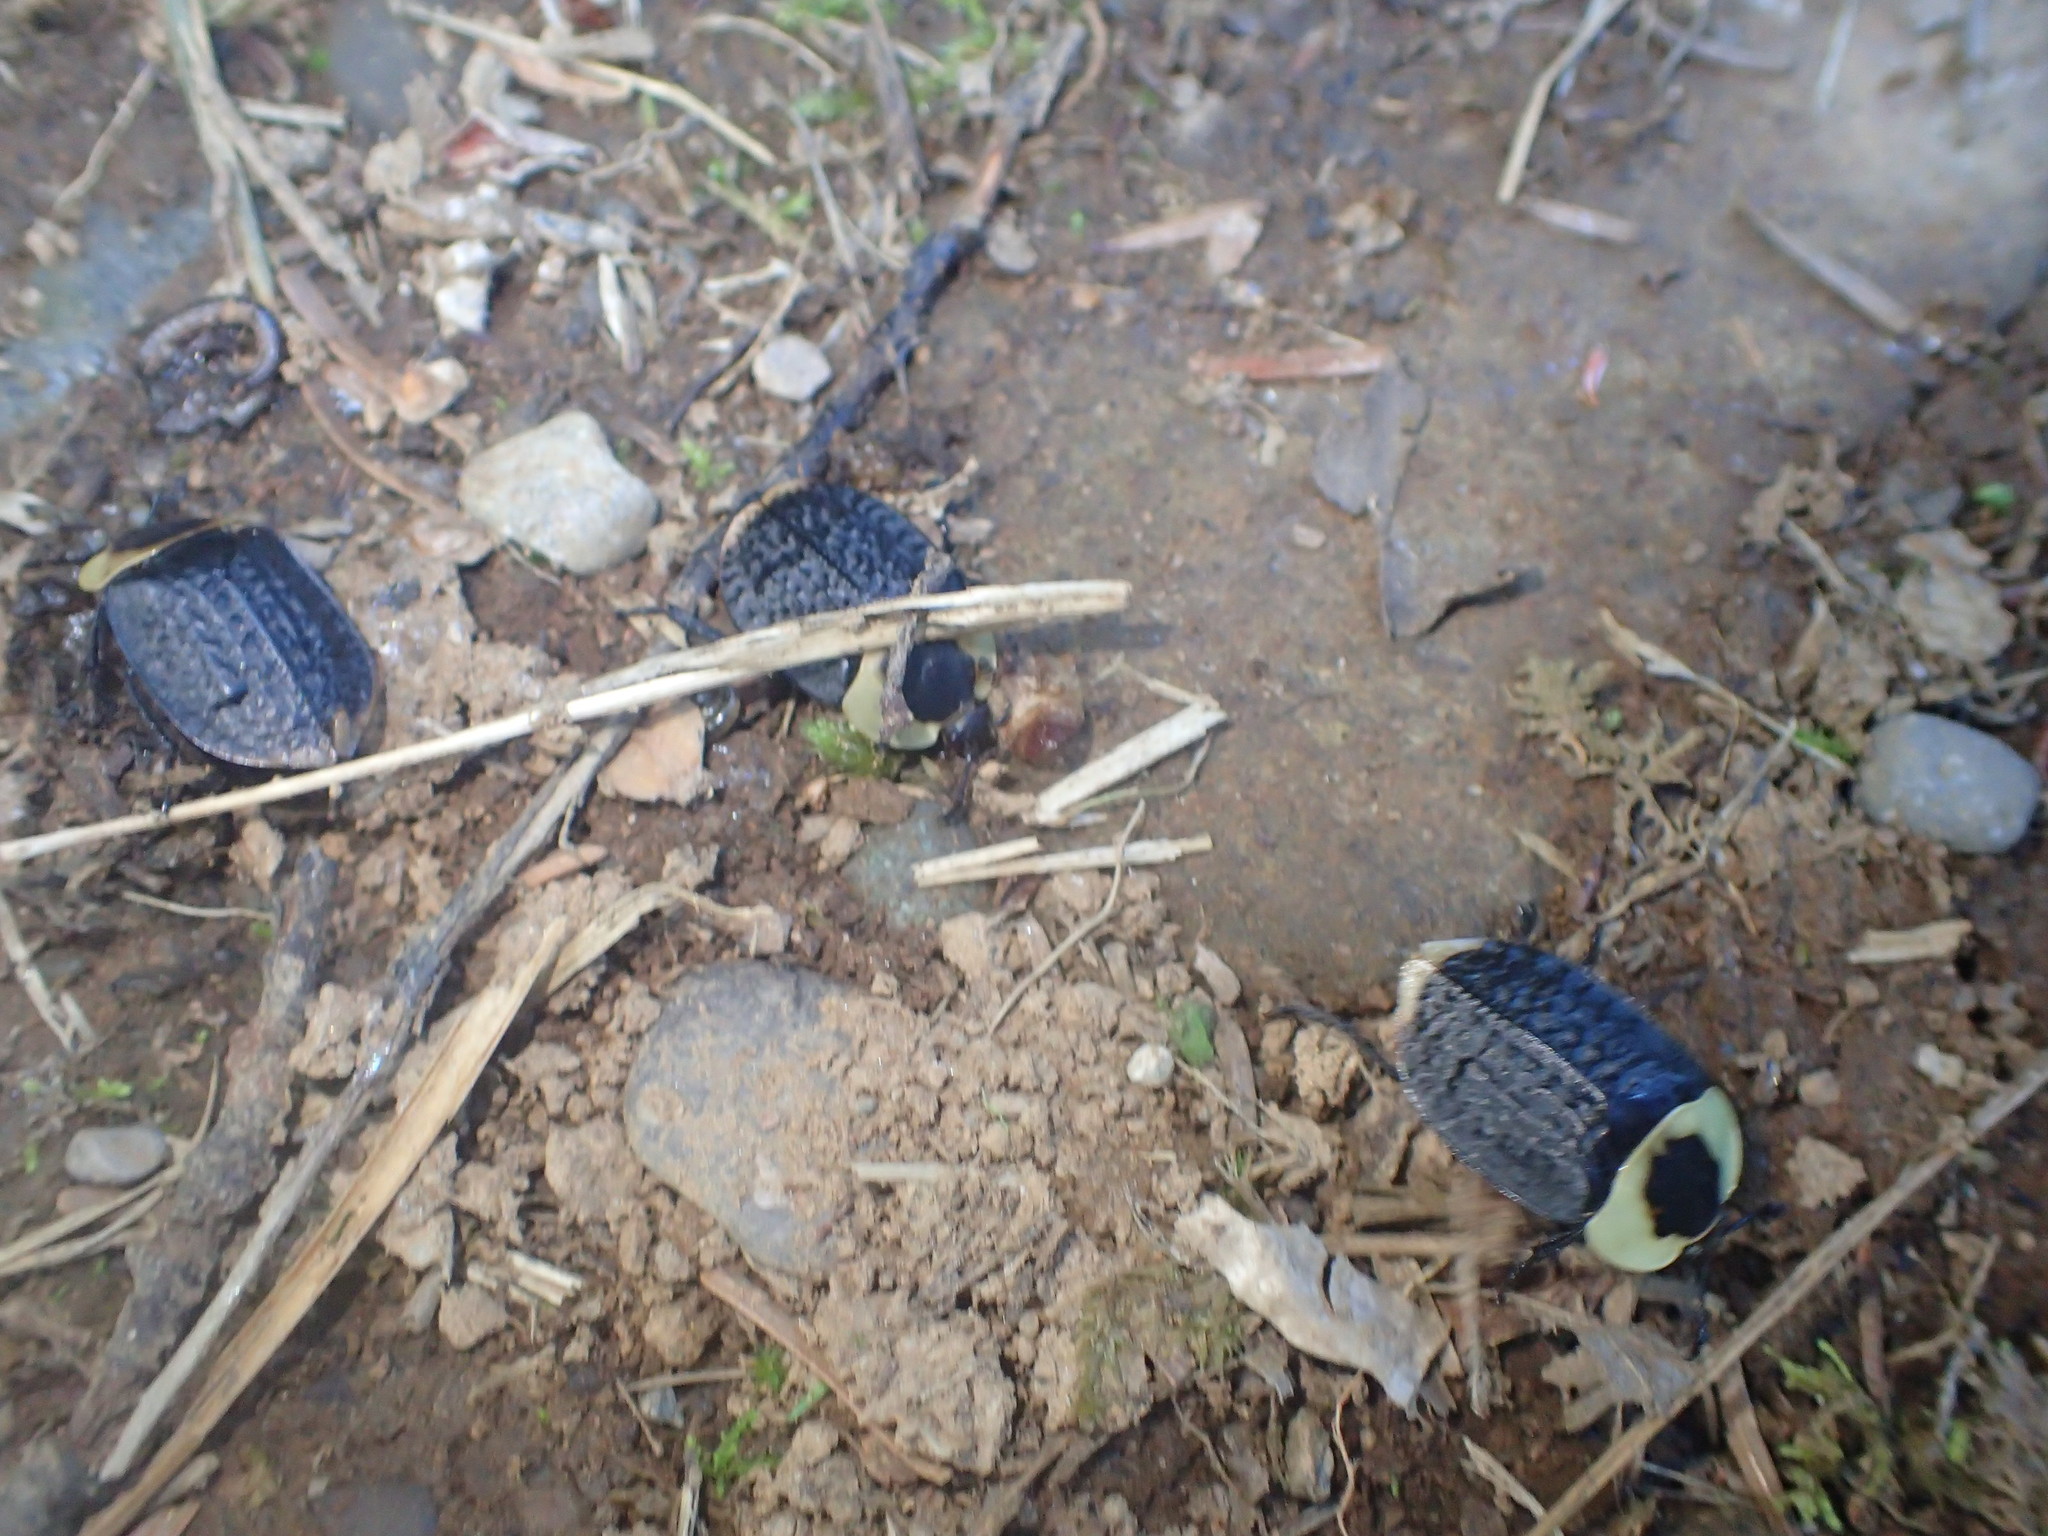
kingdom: Animalia
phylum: Arthropoda
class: Insecta
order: Coleoptera
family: Staphylinidae
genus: Necrophila
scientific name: Necrophila americana
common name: American carrion beetle
